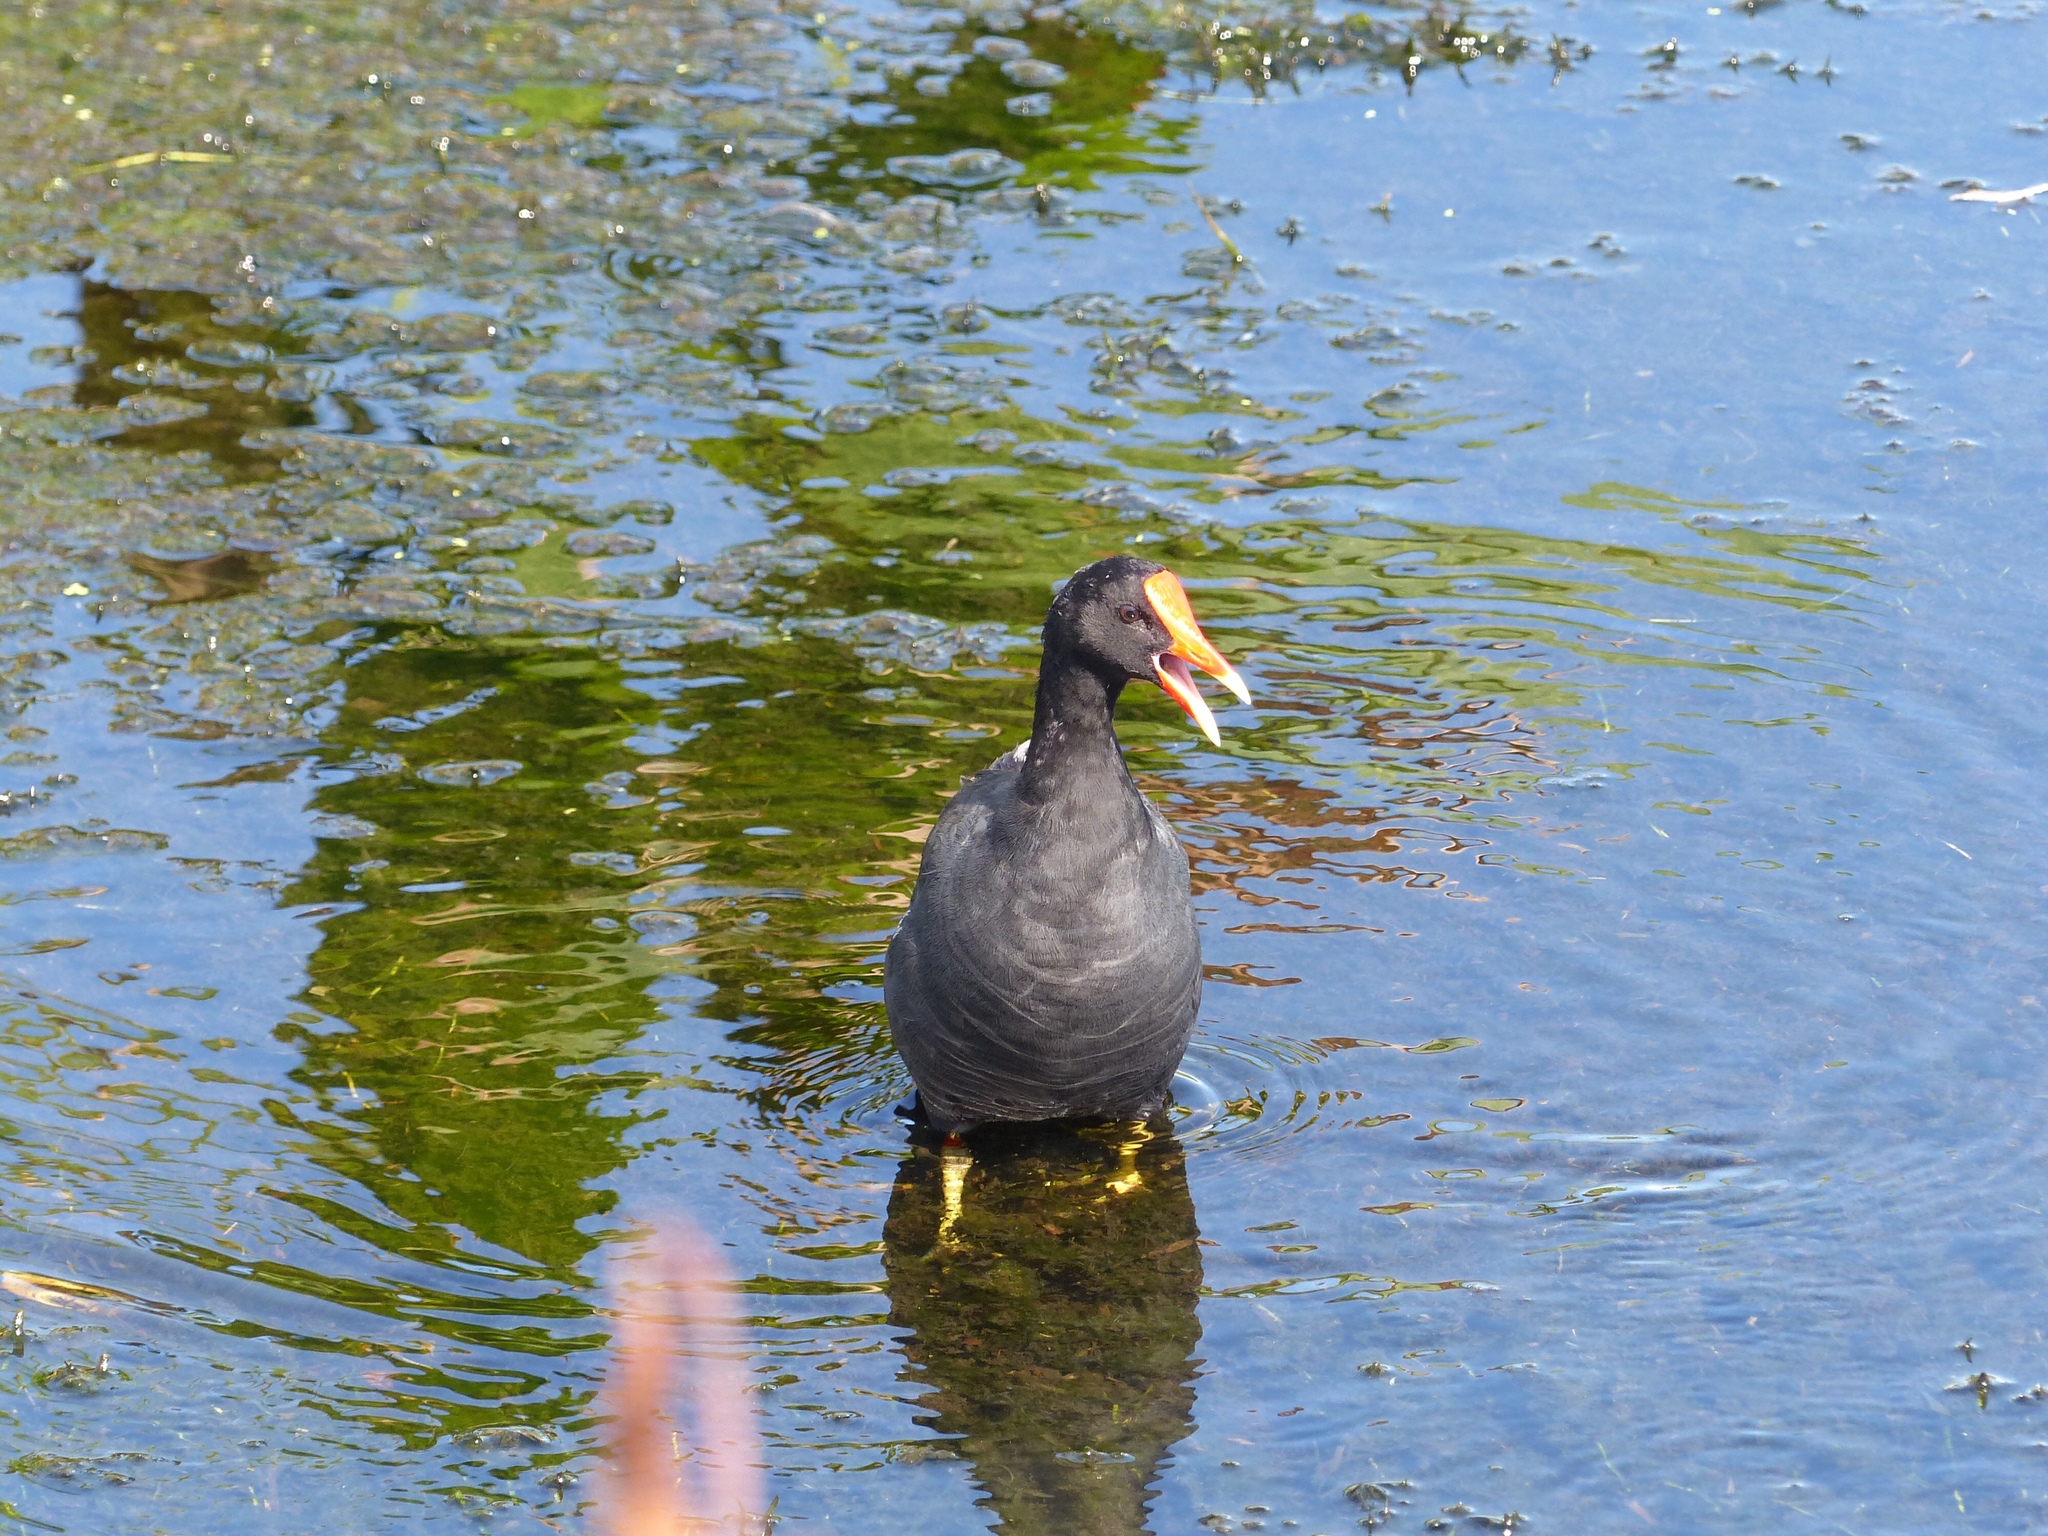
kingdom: Animalia
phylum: Chordata
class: Aves
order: Gruiformes
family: Rallidae
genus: Gallinula
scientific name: Gallinula chloropus
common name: Common moorhen
